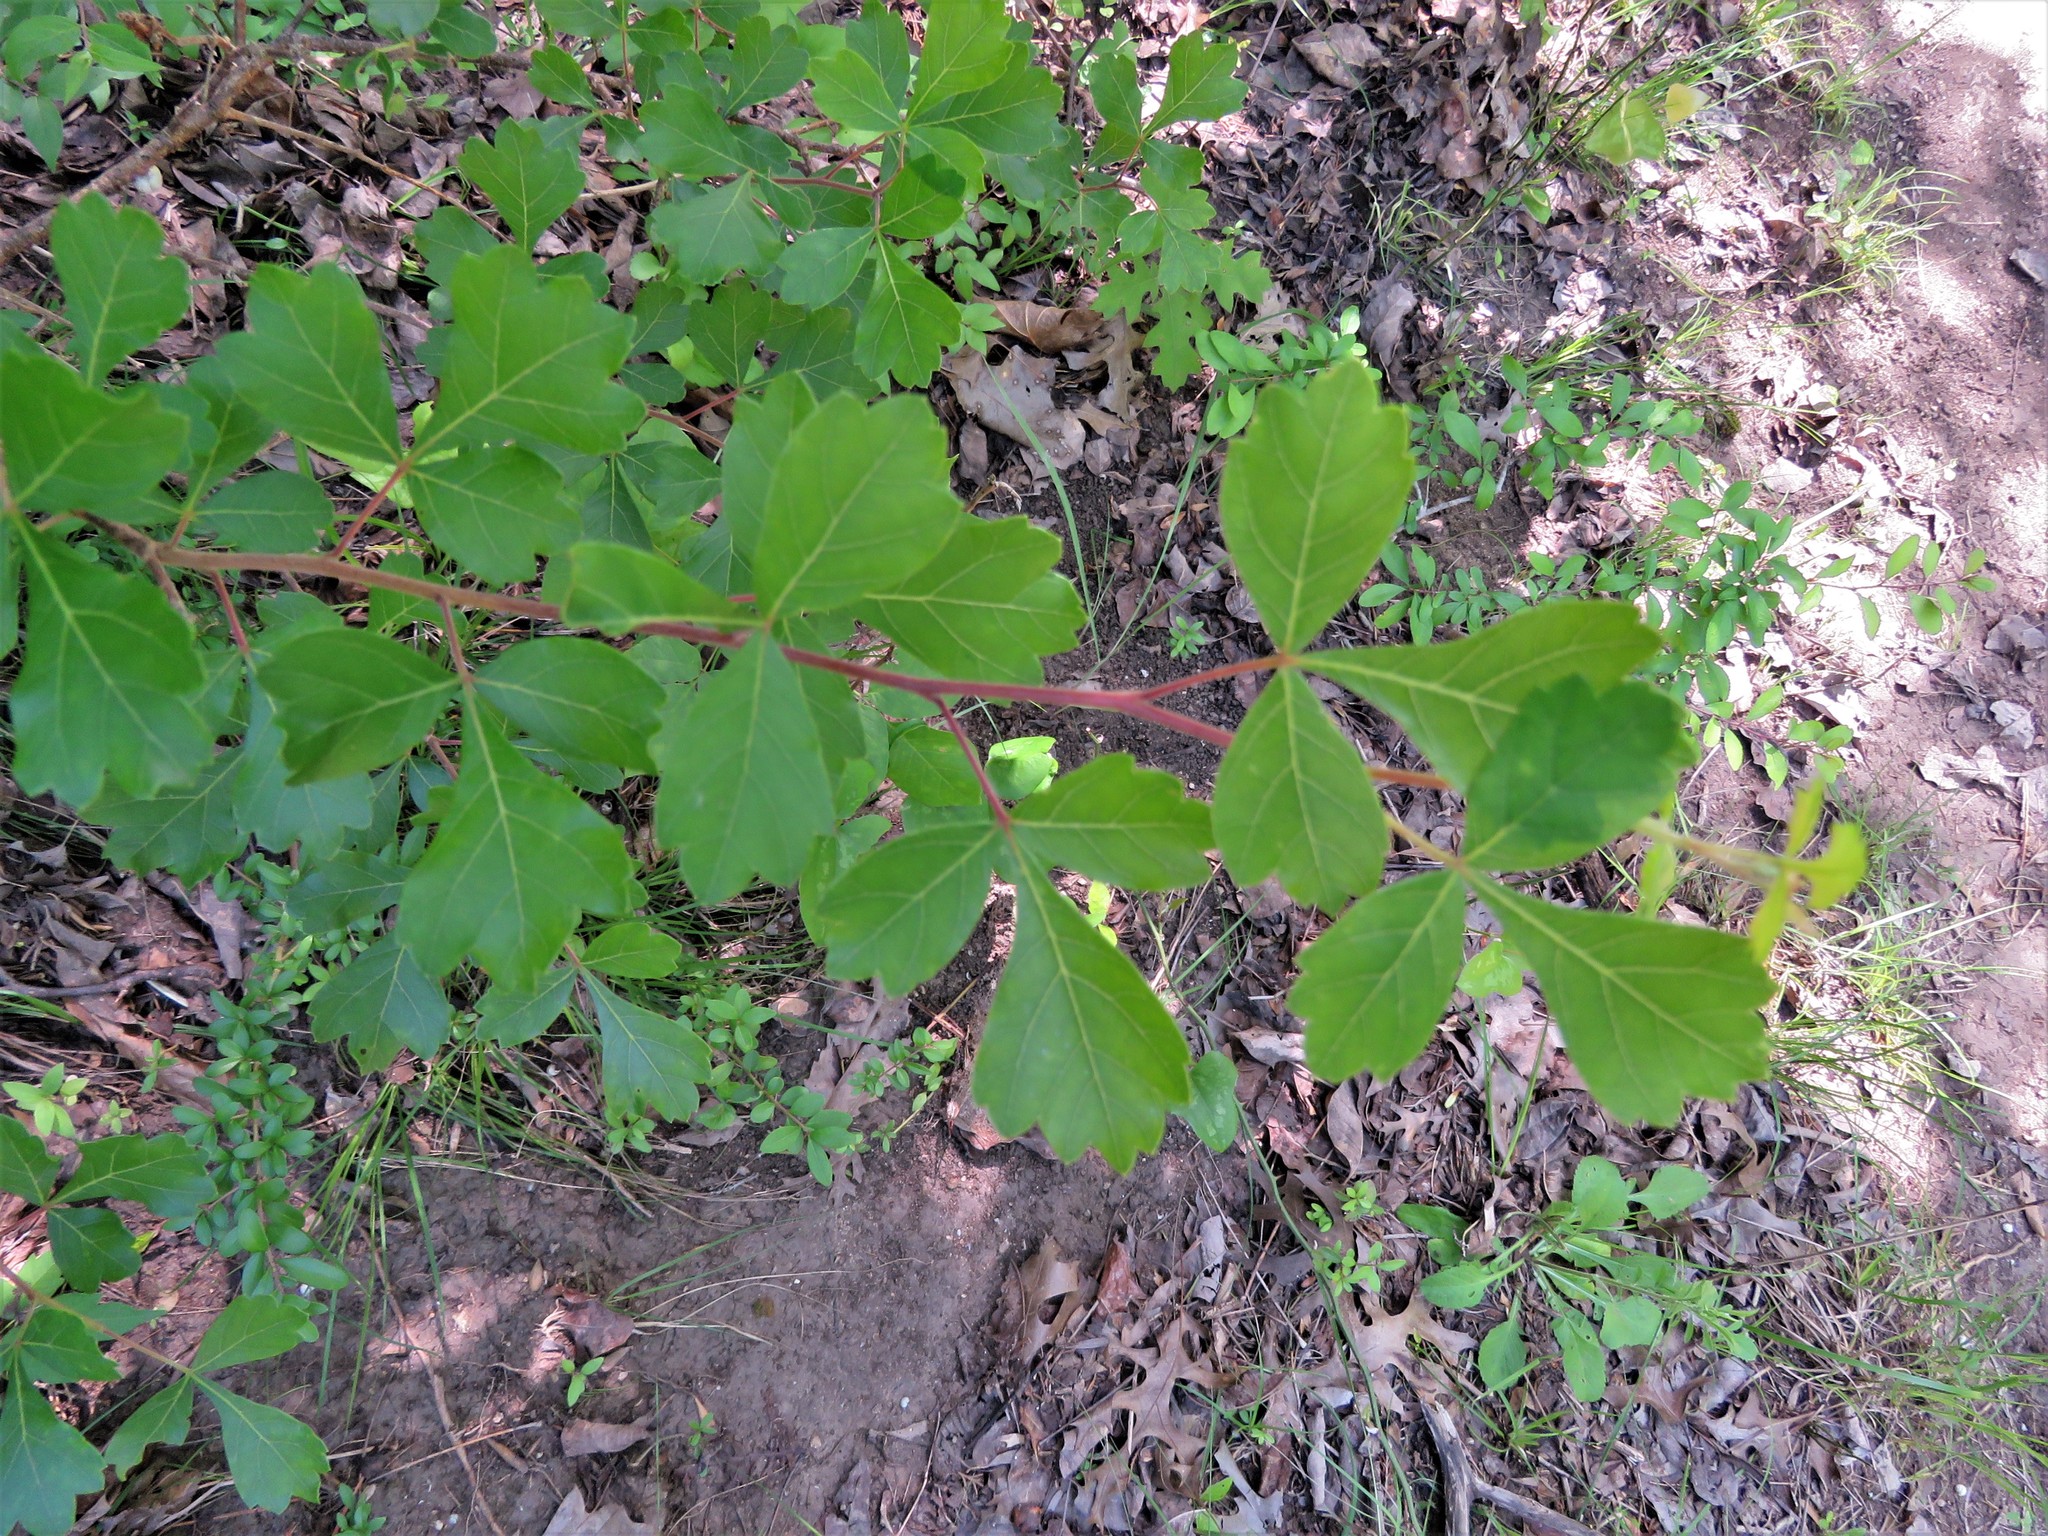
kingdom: Plantae
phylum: Tracheophyta
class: Magnoliopsida
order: Sapindales
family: Anacardiaceae
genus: Rhus
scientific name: Rhus aromatica
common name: Aromatic sumac
